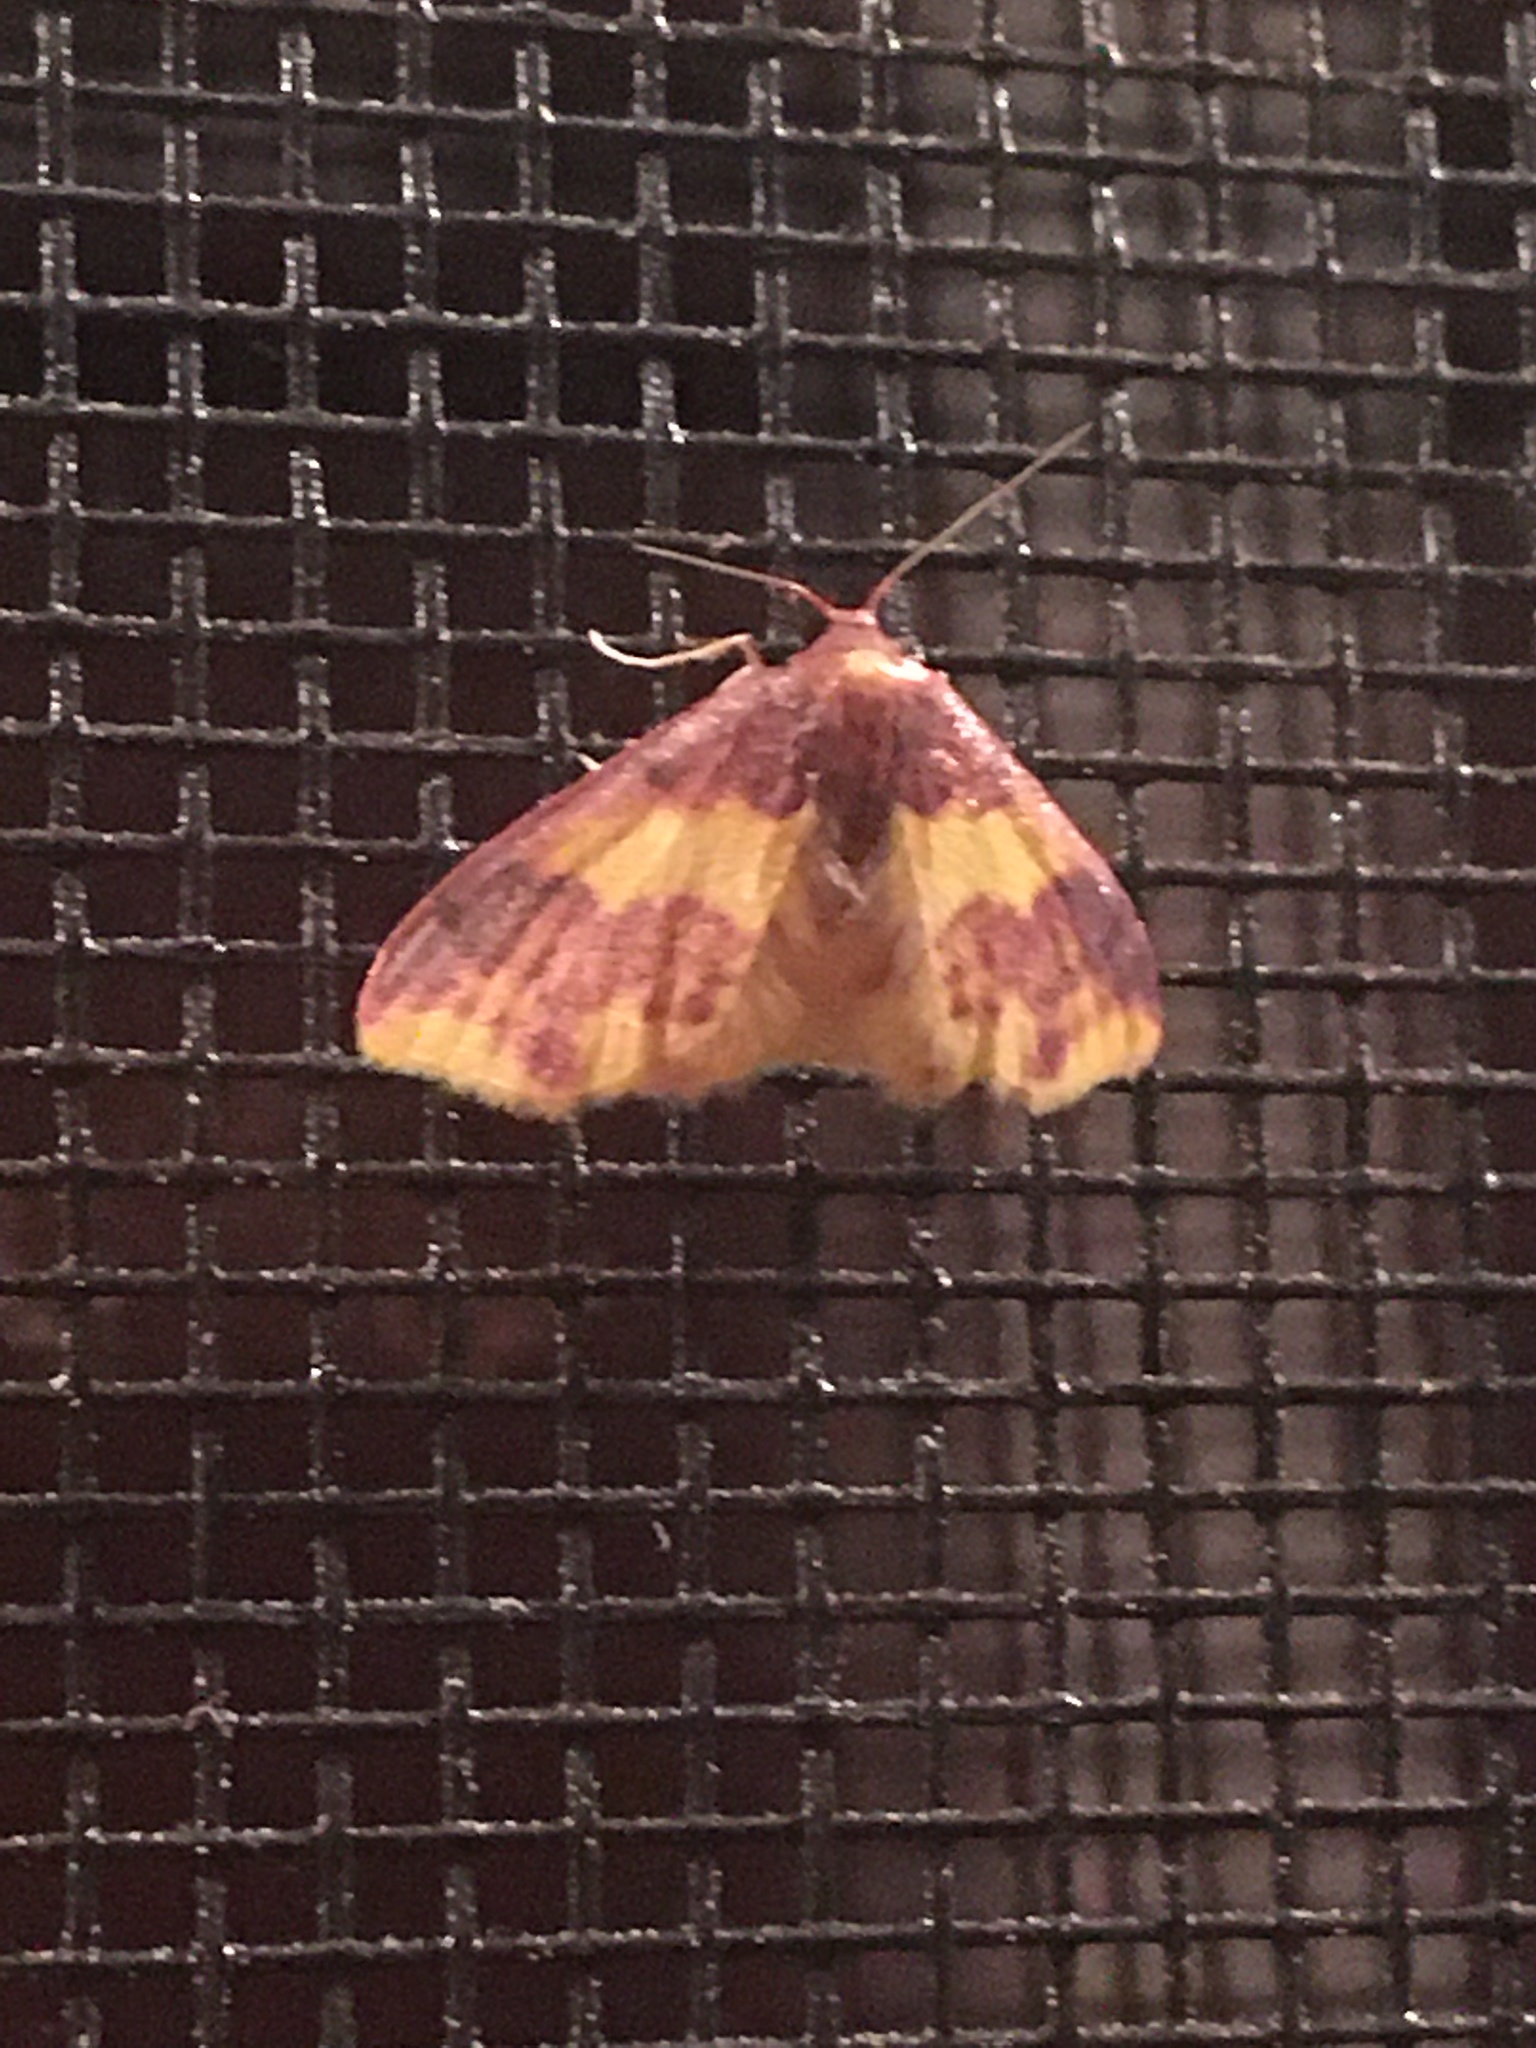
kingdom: Animalia
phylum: Arthropoda
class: Insecta
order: Lepidoptera
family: Geometridae
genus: Lophosis
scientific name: Lophosis labeculata
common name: Stained lophosis moth
